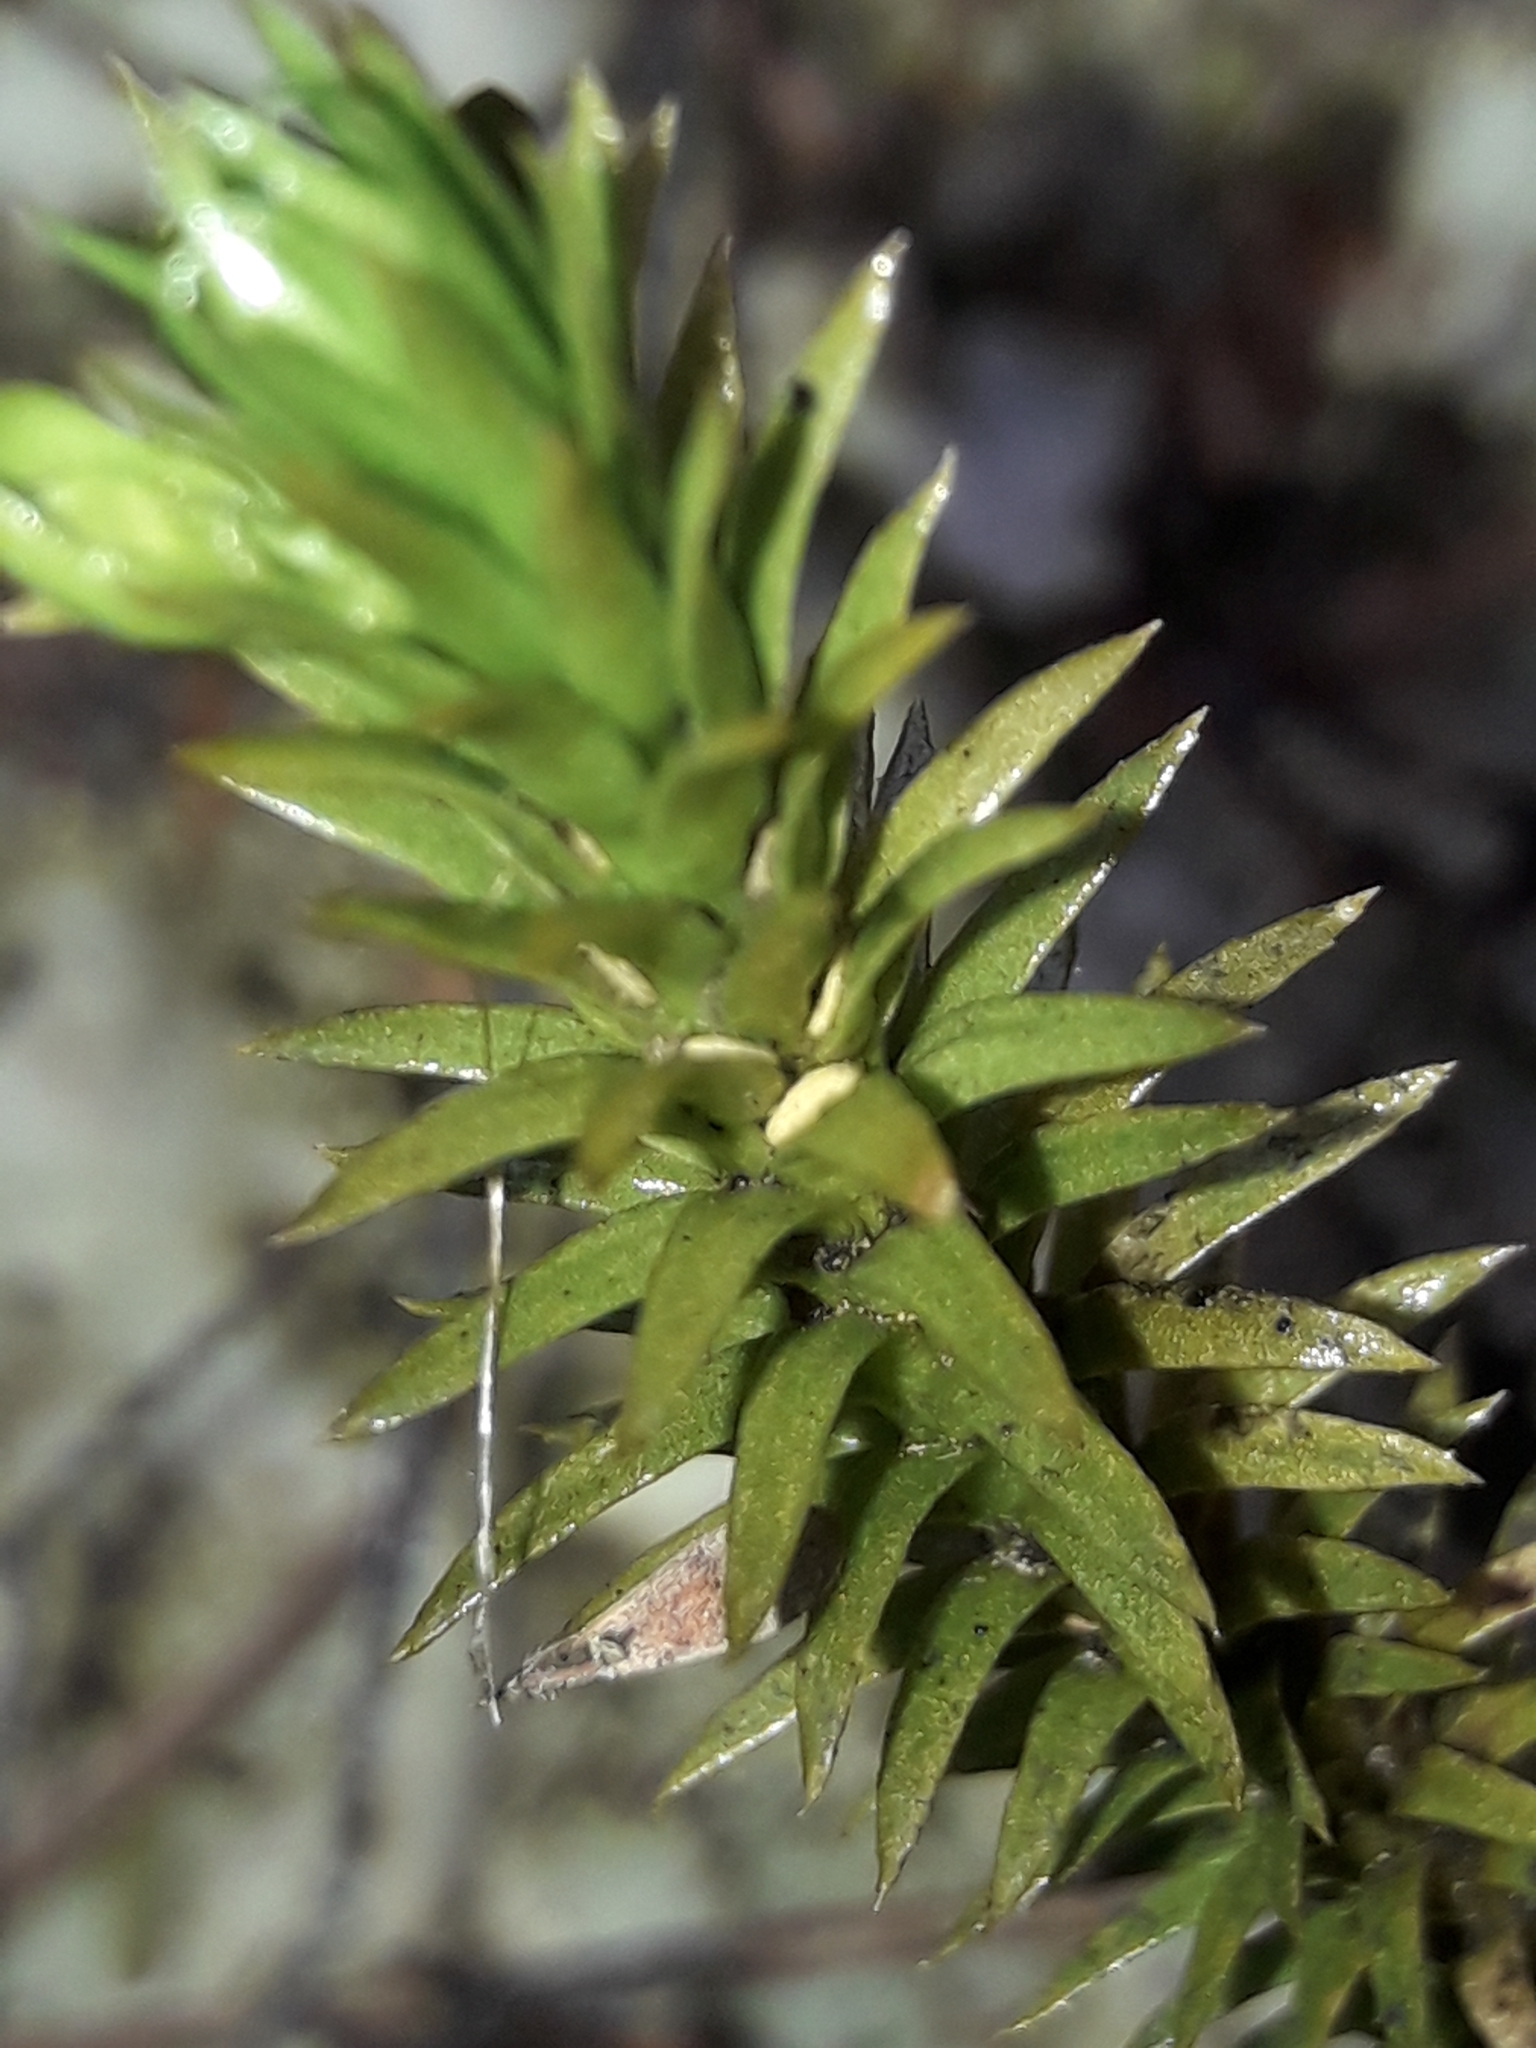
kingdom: Plantae
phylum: Tracheophyta
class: Lycopodiopsida
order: Lycopodiales
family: Lycopodiaceae
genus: Huperzia
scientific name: Huperzia australiana
